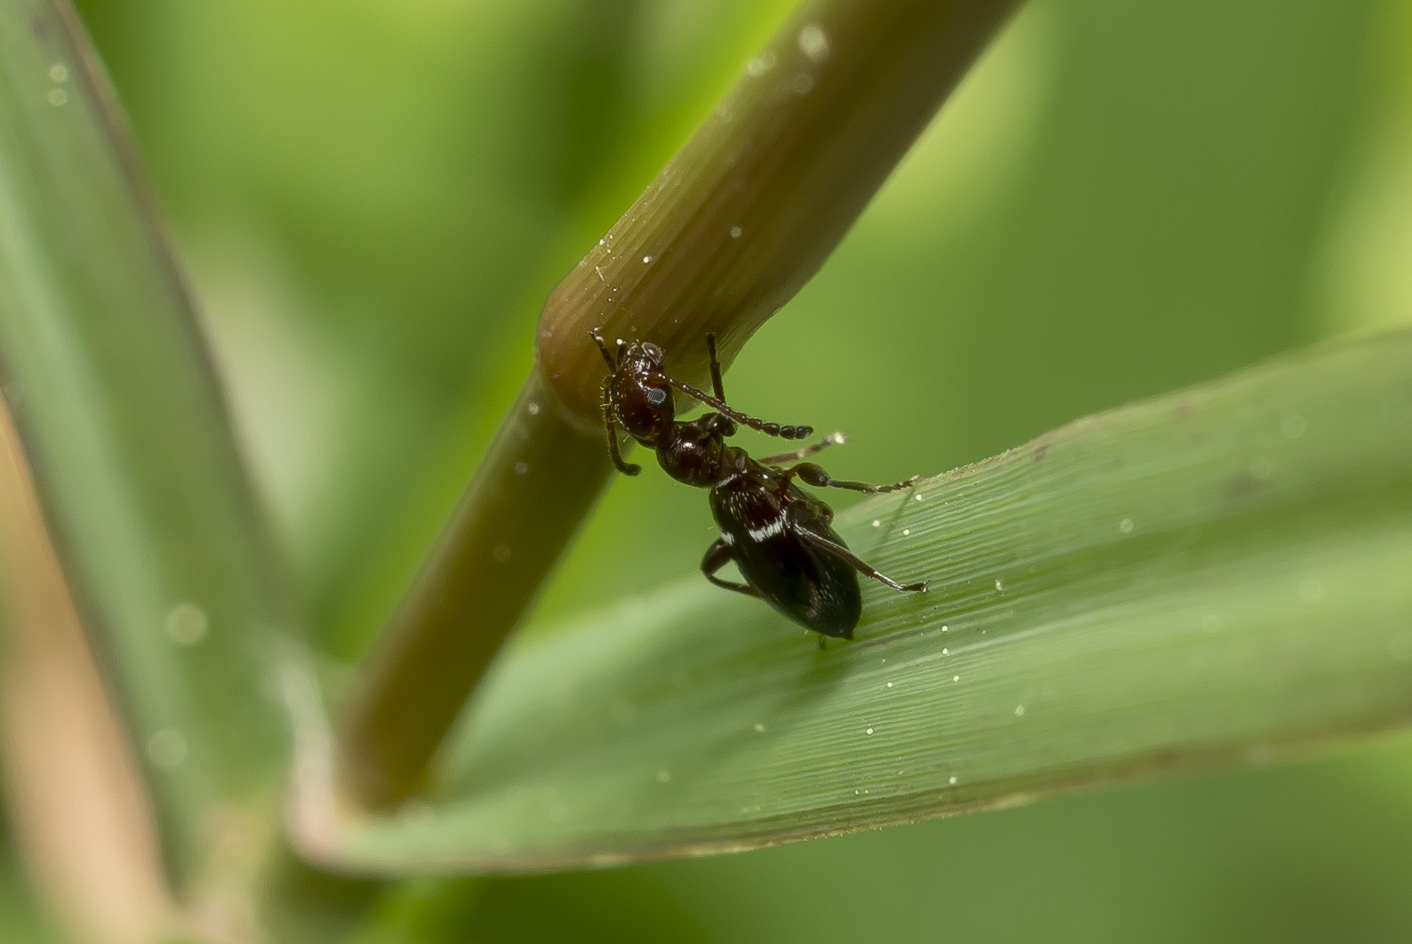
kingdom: Animalia
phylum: Arthropoda
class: Insecta
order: Coleoptera
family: Anthicidae
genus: Anthelephila
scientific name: Anthelephila ionica
